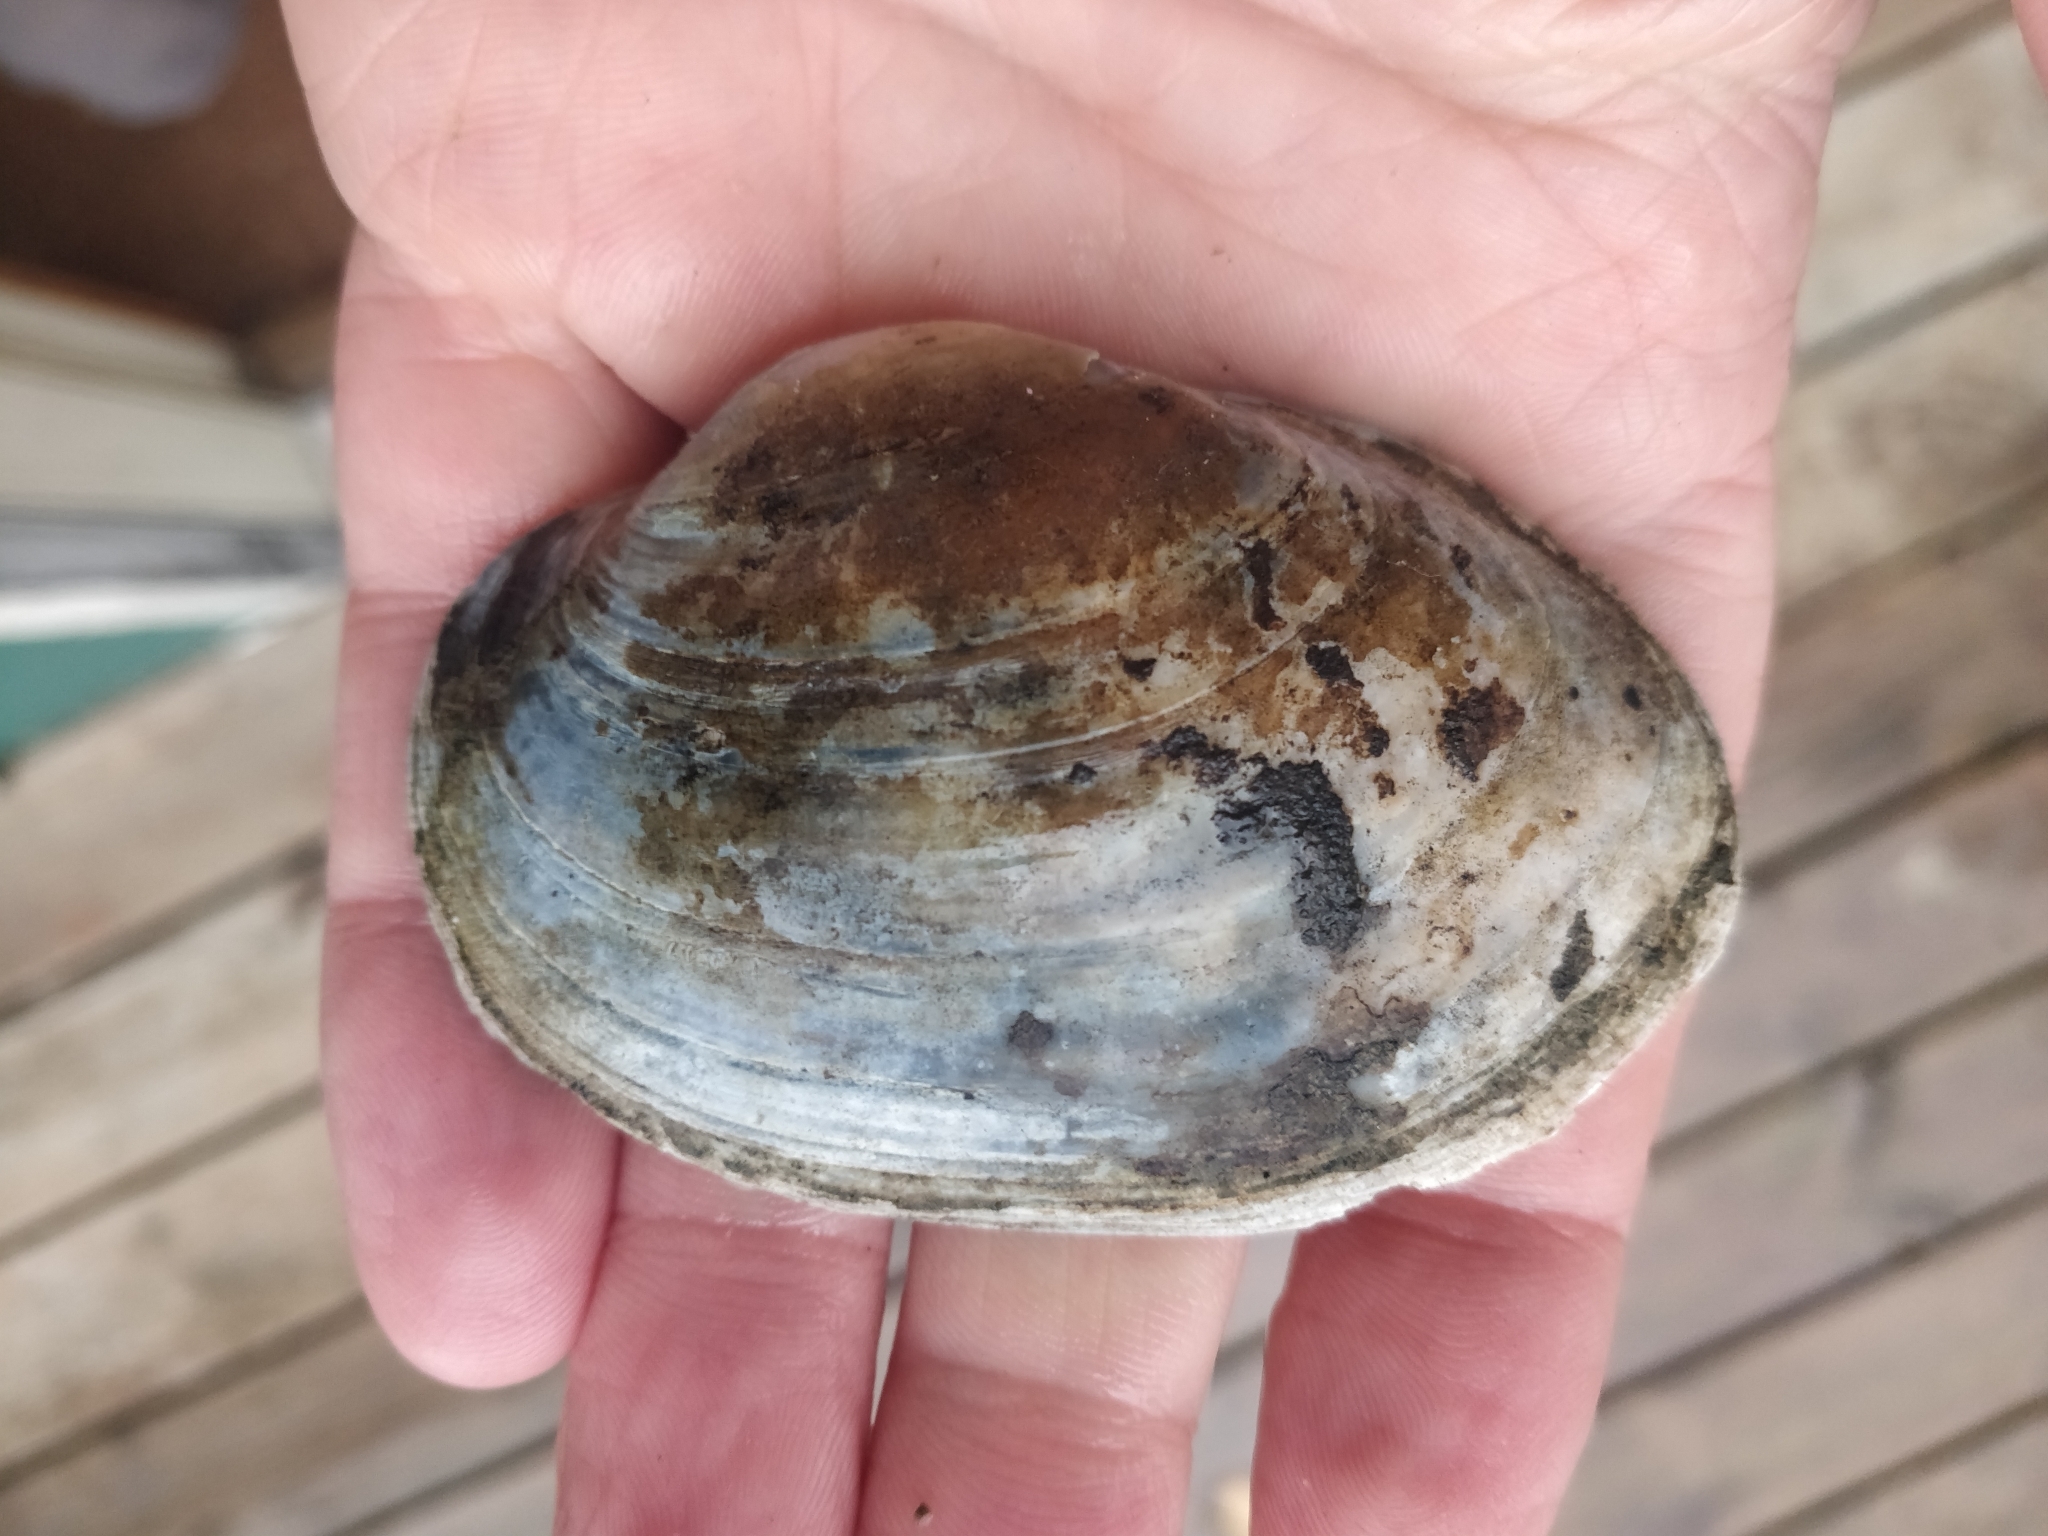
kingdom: Animalia
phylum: Mollusca
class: Bivalvia
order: Unionida
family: Unionidae
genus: Lampsilis
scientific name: Lampsilis cardium
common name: Plain pocketbook
